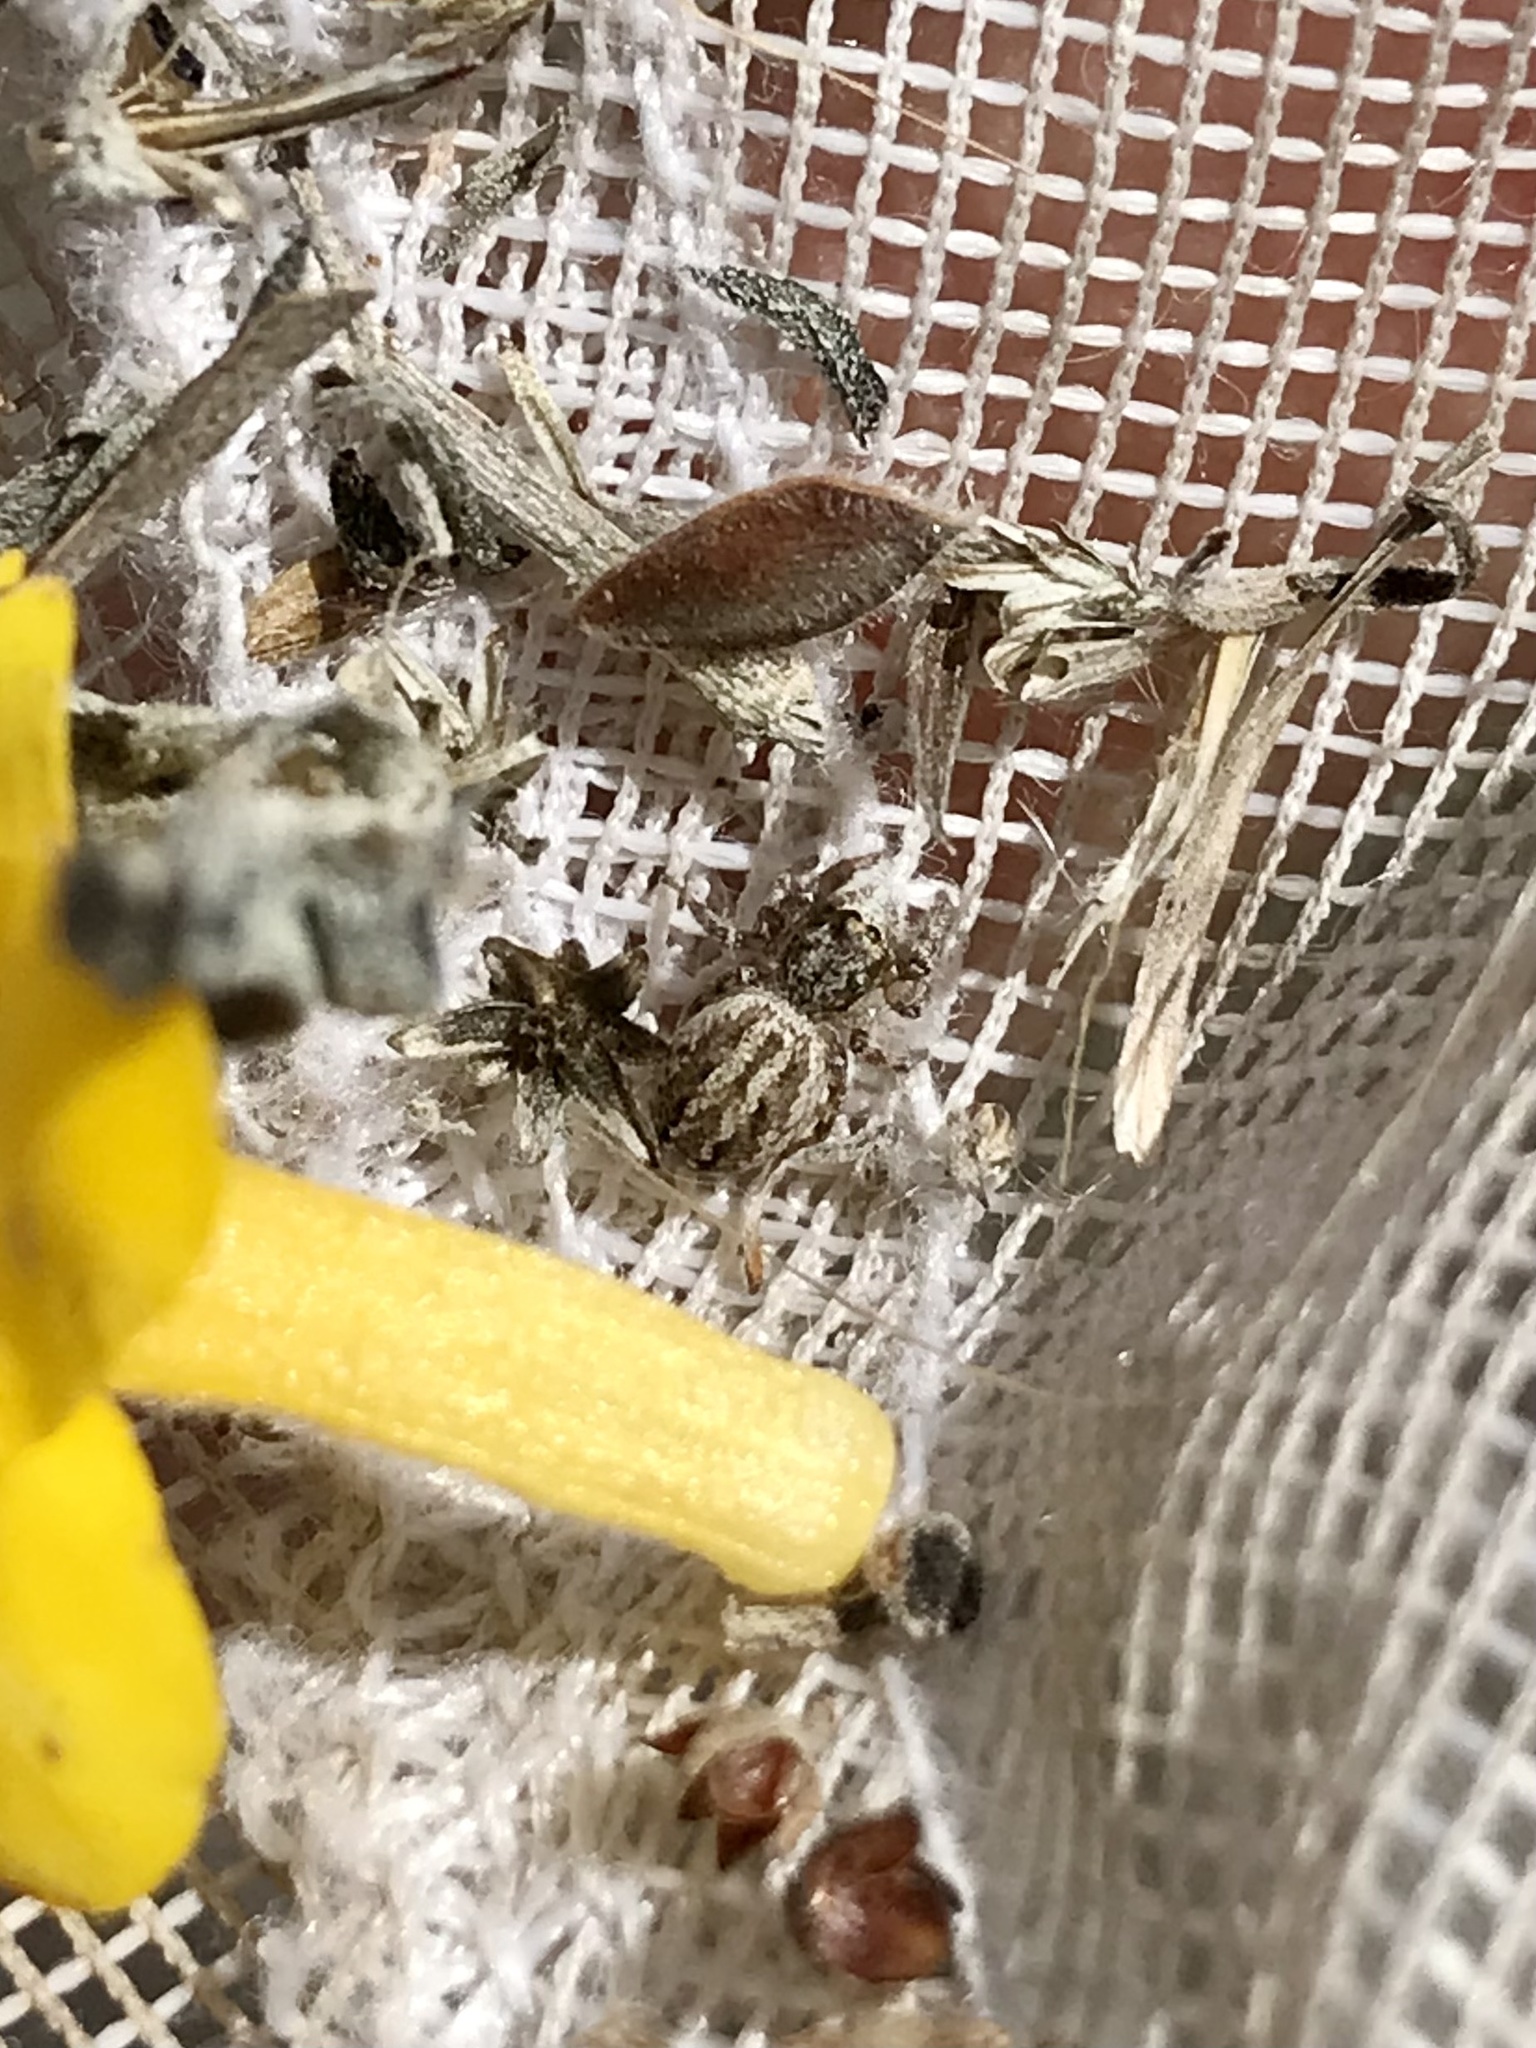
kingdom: Animalia
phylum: Arthropoda
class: Arachnida
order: Araneae
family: Salticidae
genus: Pelegrina
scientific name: Pelegrina arizonensis
